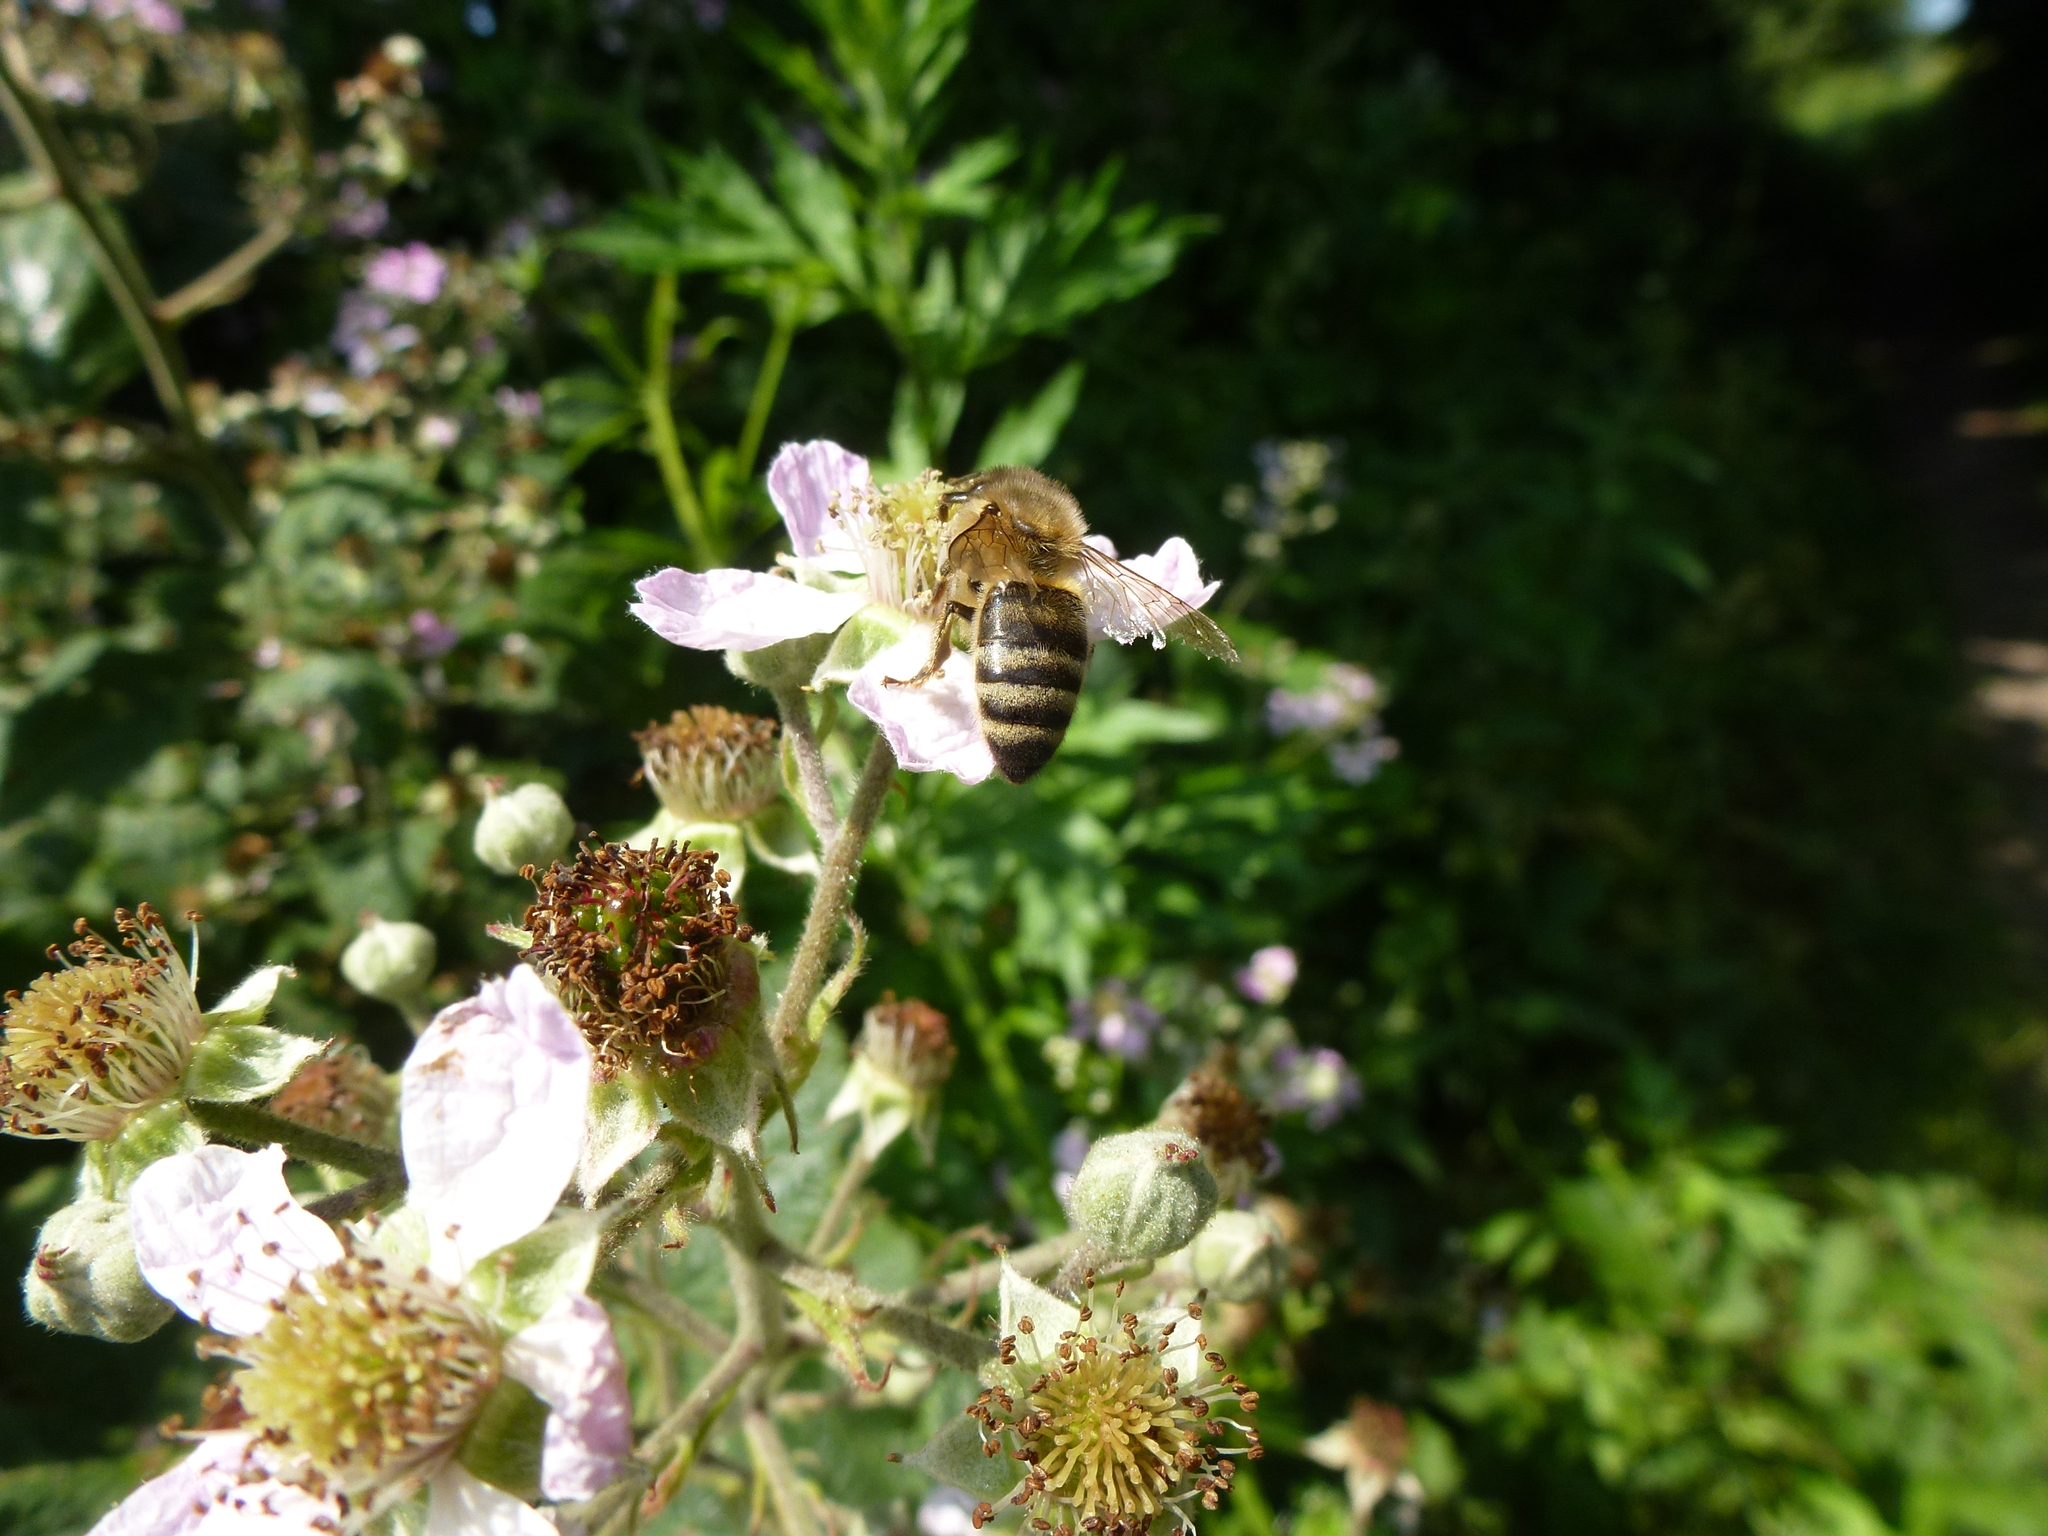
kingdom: Animalia
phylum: Arthropoda
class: Insecta
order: Hymenoptera
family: Apidae
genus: Apis
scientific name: Apis mellifera
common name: Honey bee
